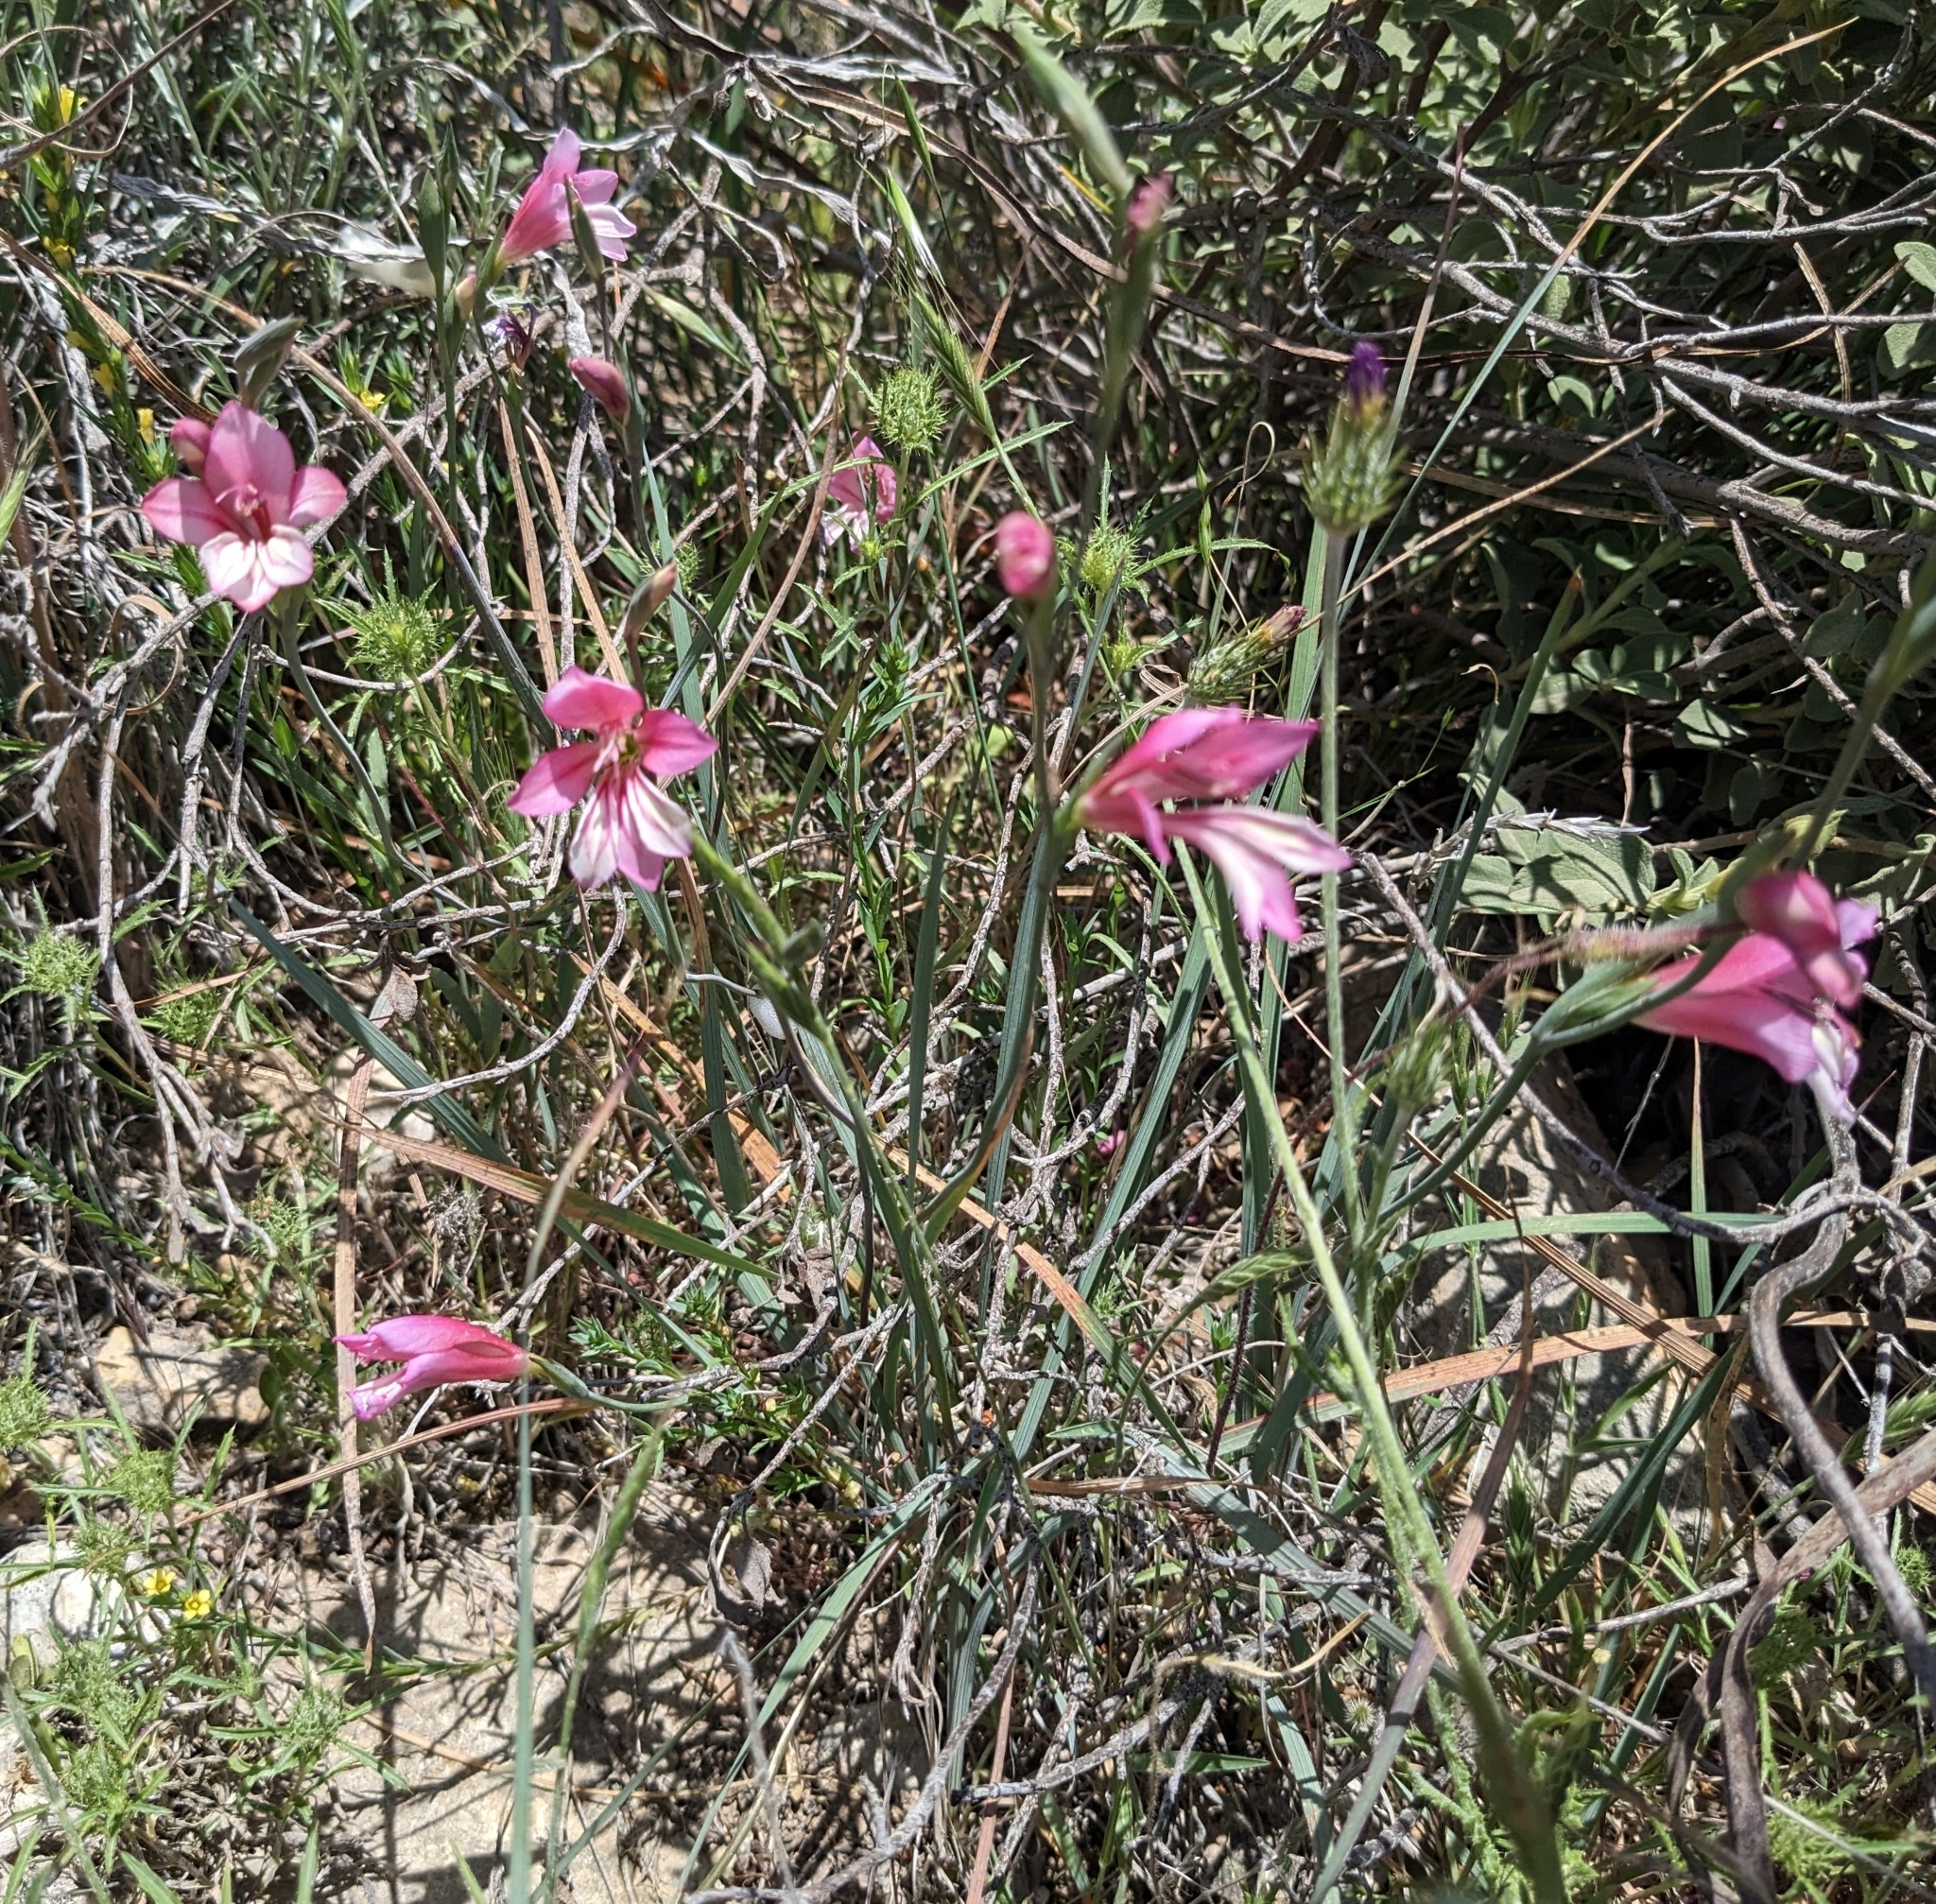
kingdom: Plantae
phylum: Tracheophyta
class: Liliopsida
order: Asparagales
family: Iridaceae
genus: Gladiolus
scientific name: Gladiolus triphyllus
